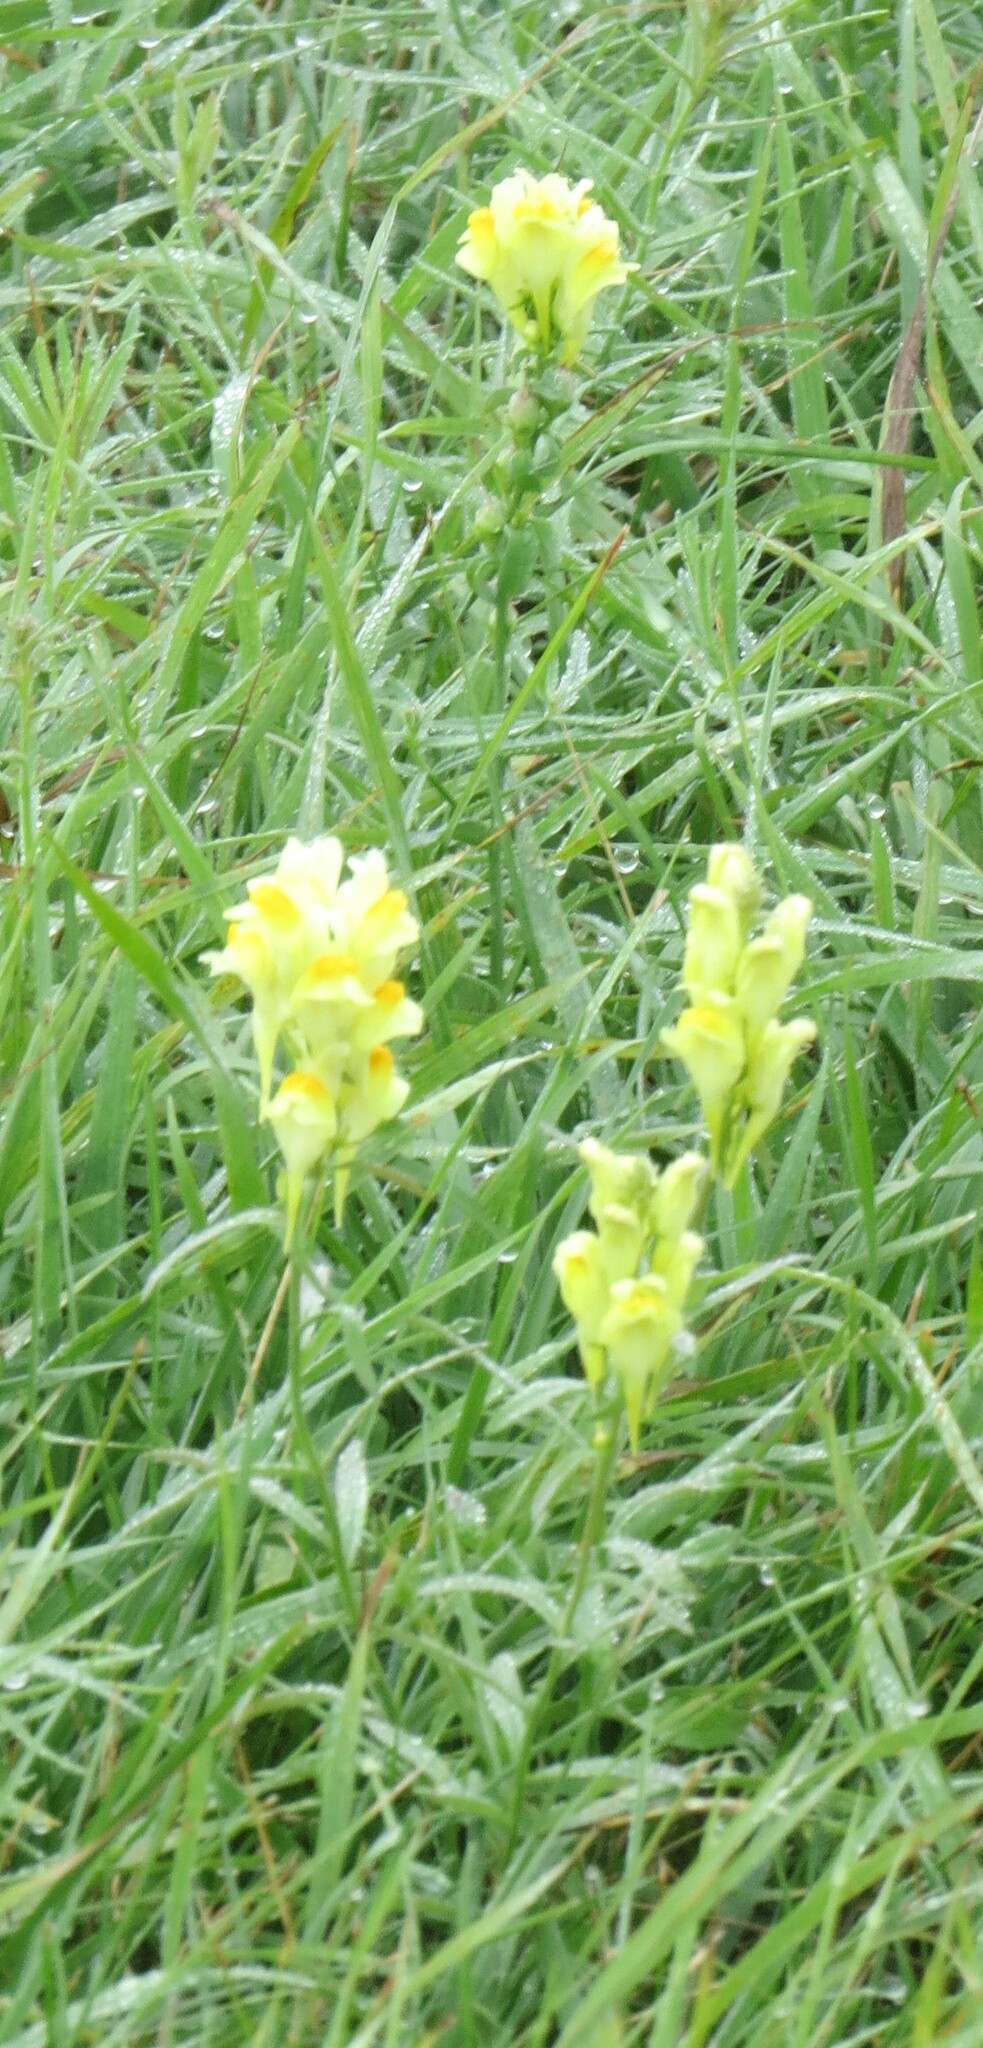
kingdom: Plantae
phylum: Tracheophyta
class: Magnoliopsida
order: Lamiales
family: Plantaginaceae
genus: Linaria
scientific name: Linaria vulgaris
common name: Butter and eggs
